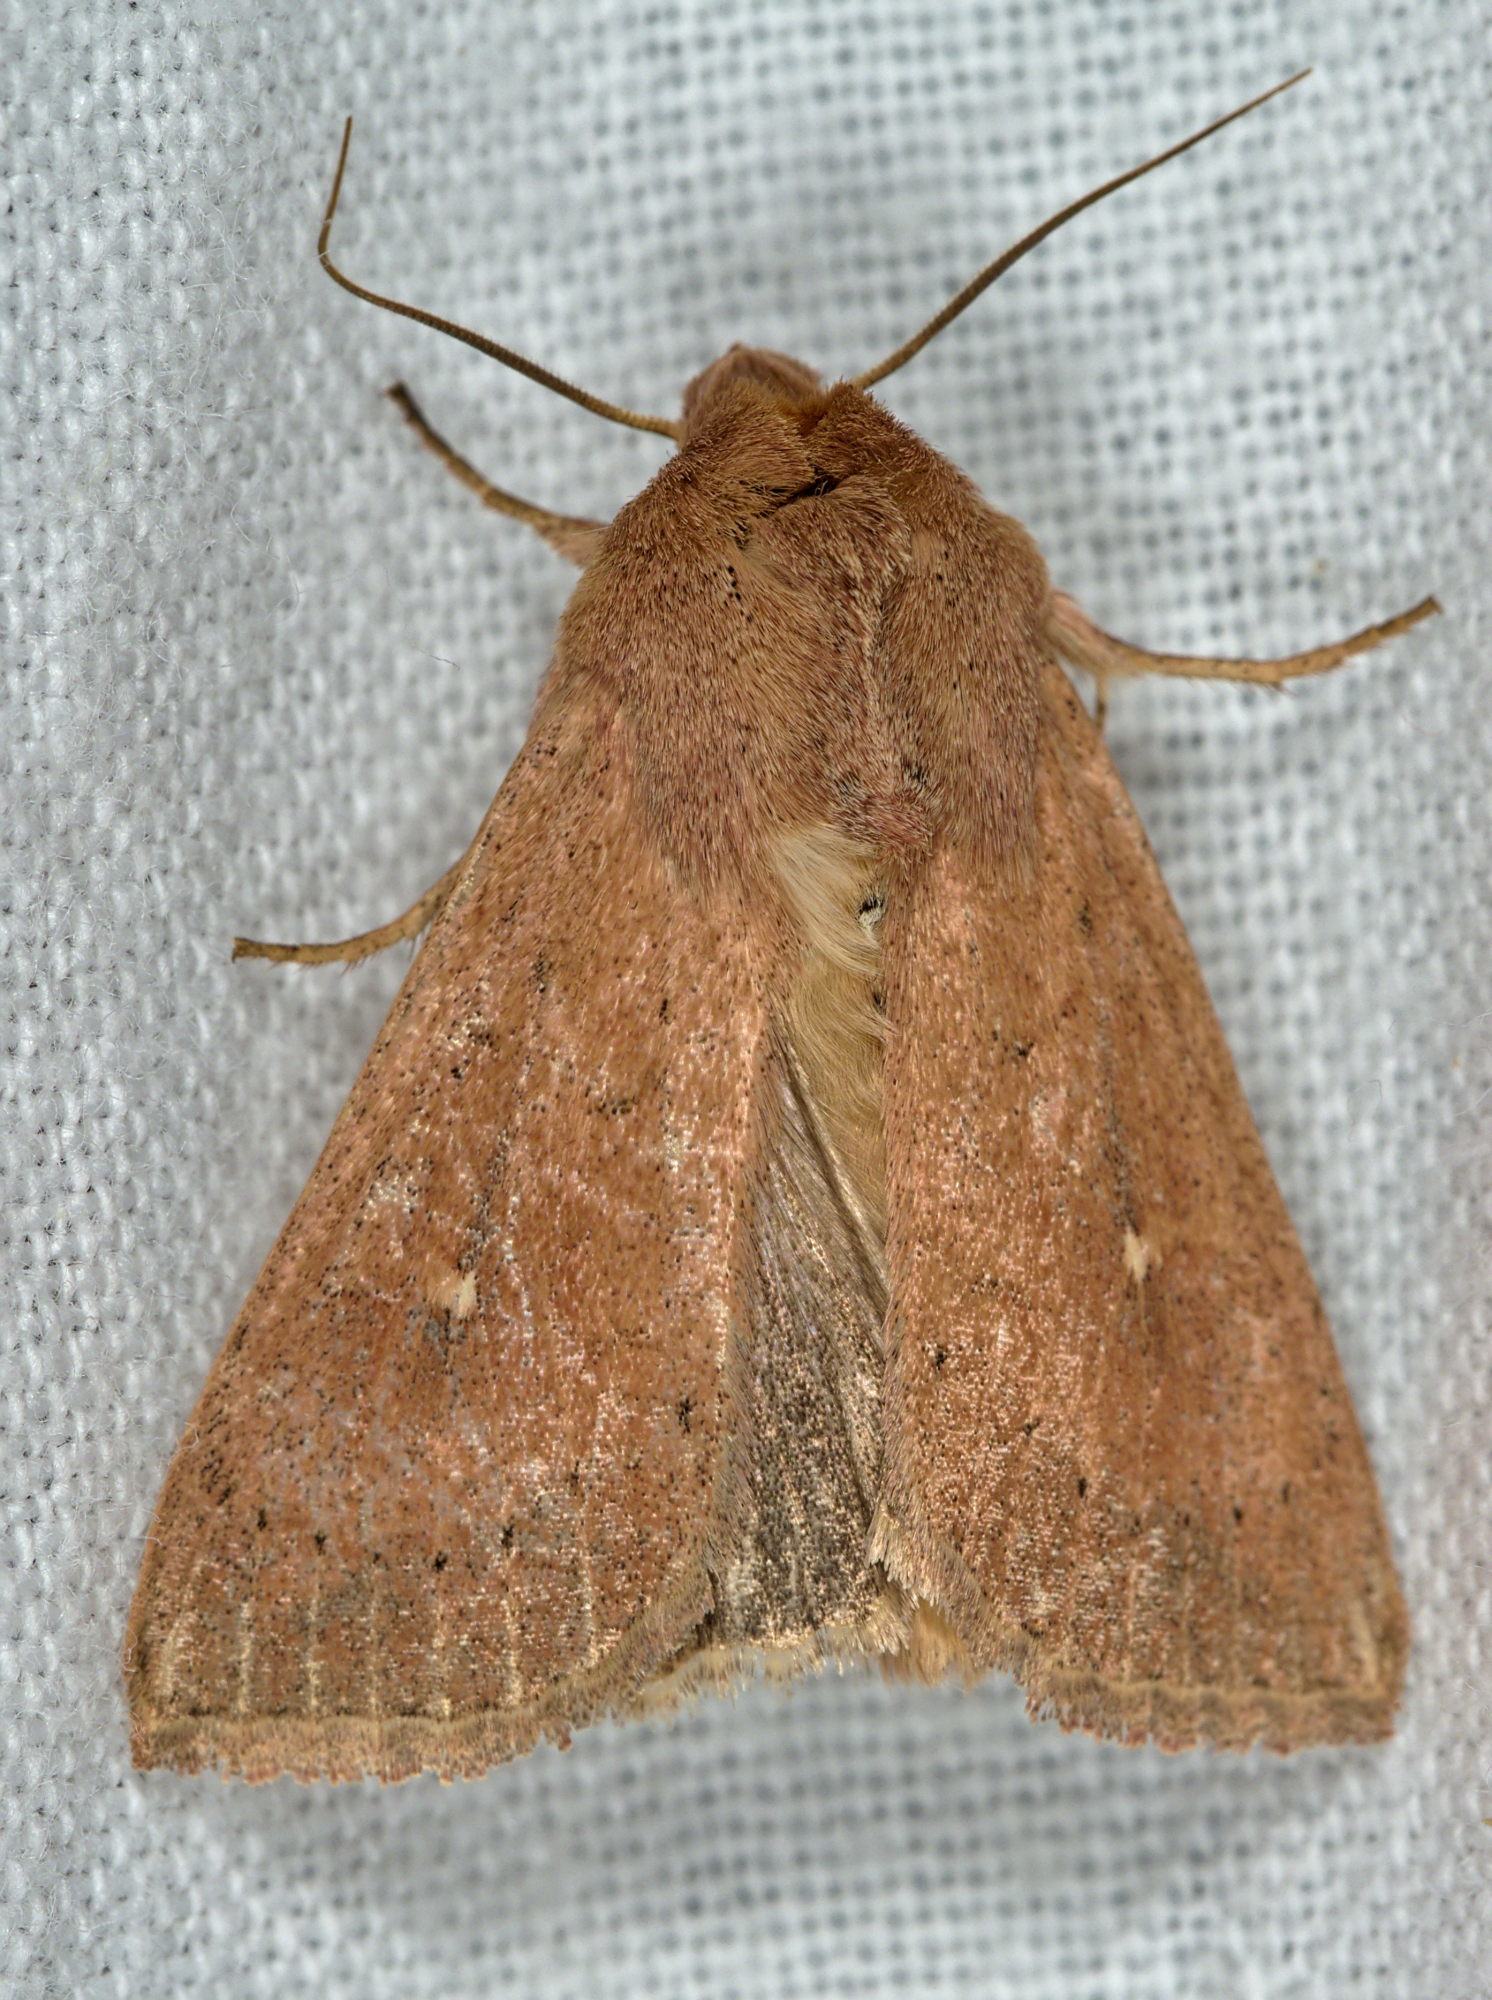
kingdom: Animalia
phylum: Arthropoda
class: Insecta
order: Lepidoptera
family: Noctuidae
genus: Mythimna
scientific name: Mythimna ferrago
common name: Clay
